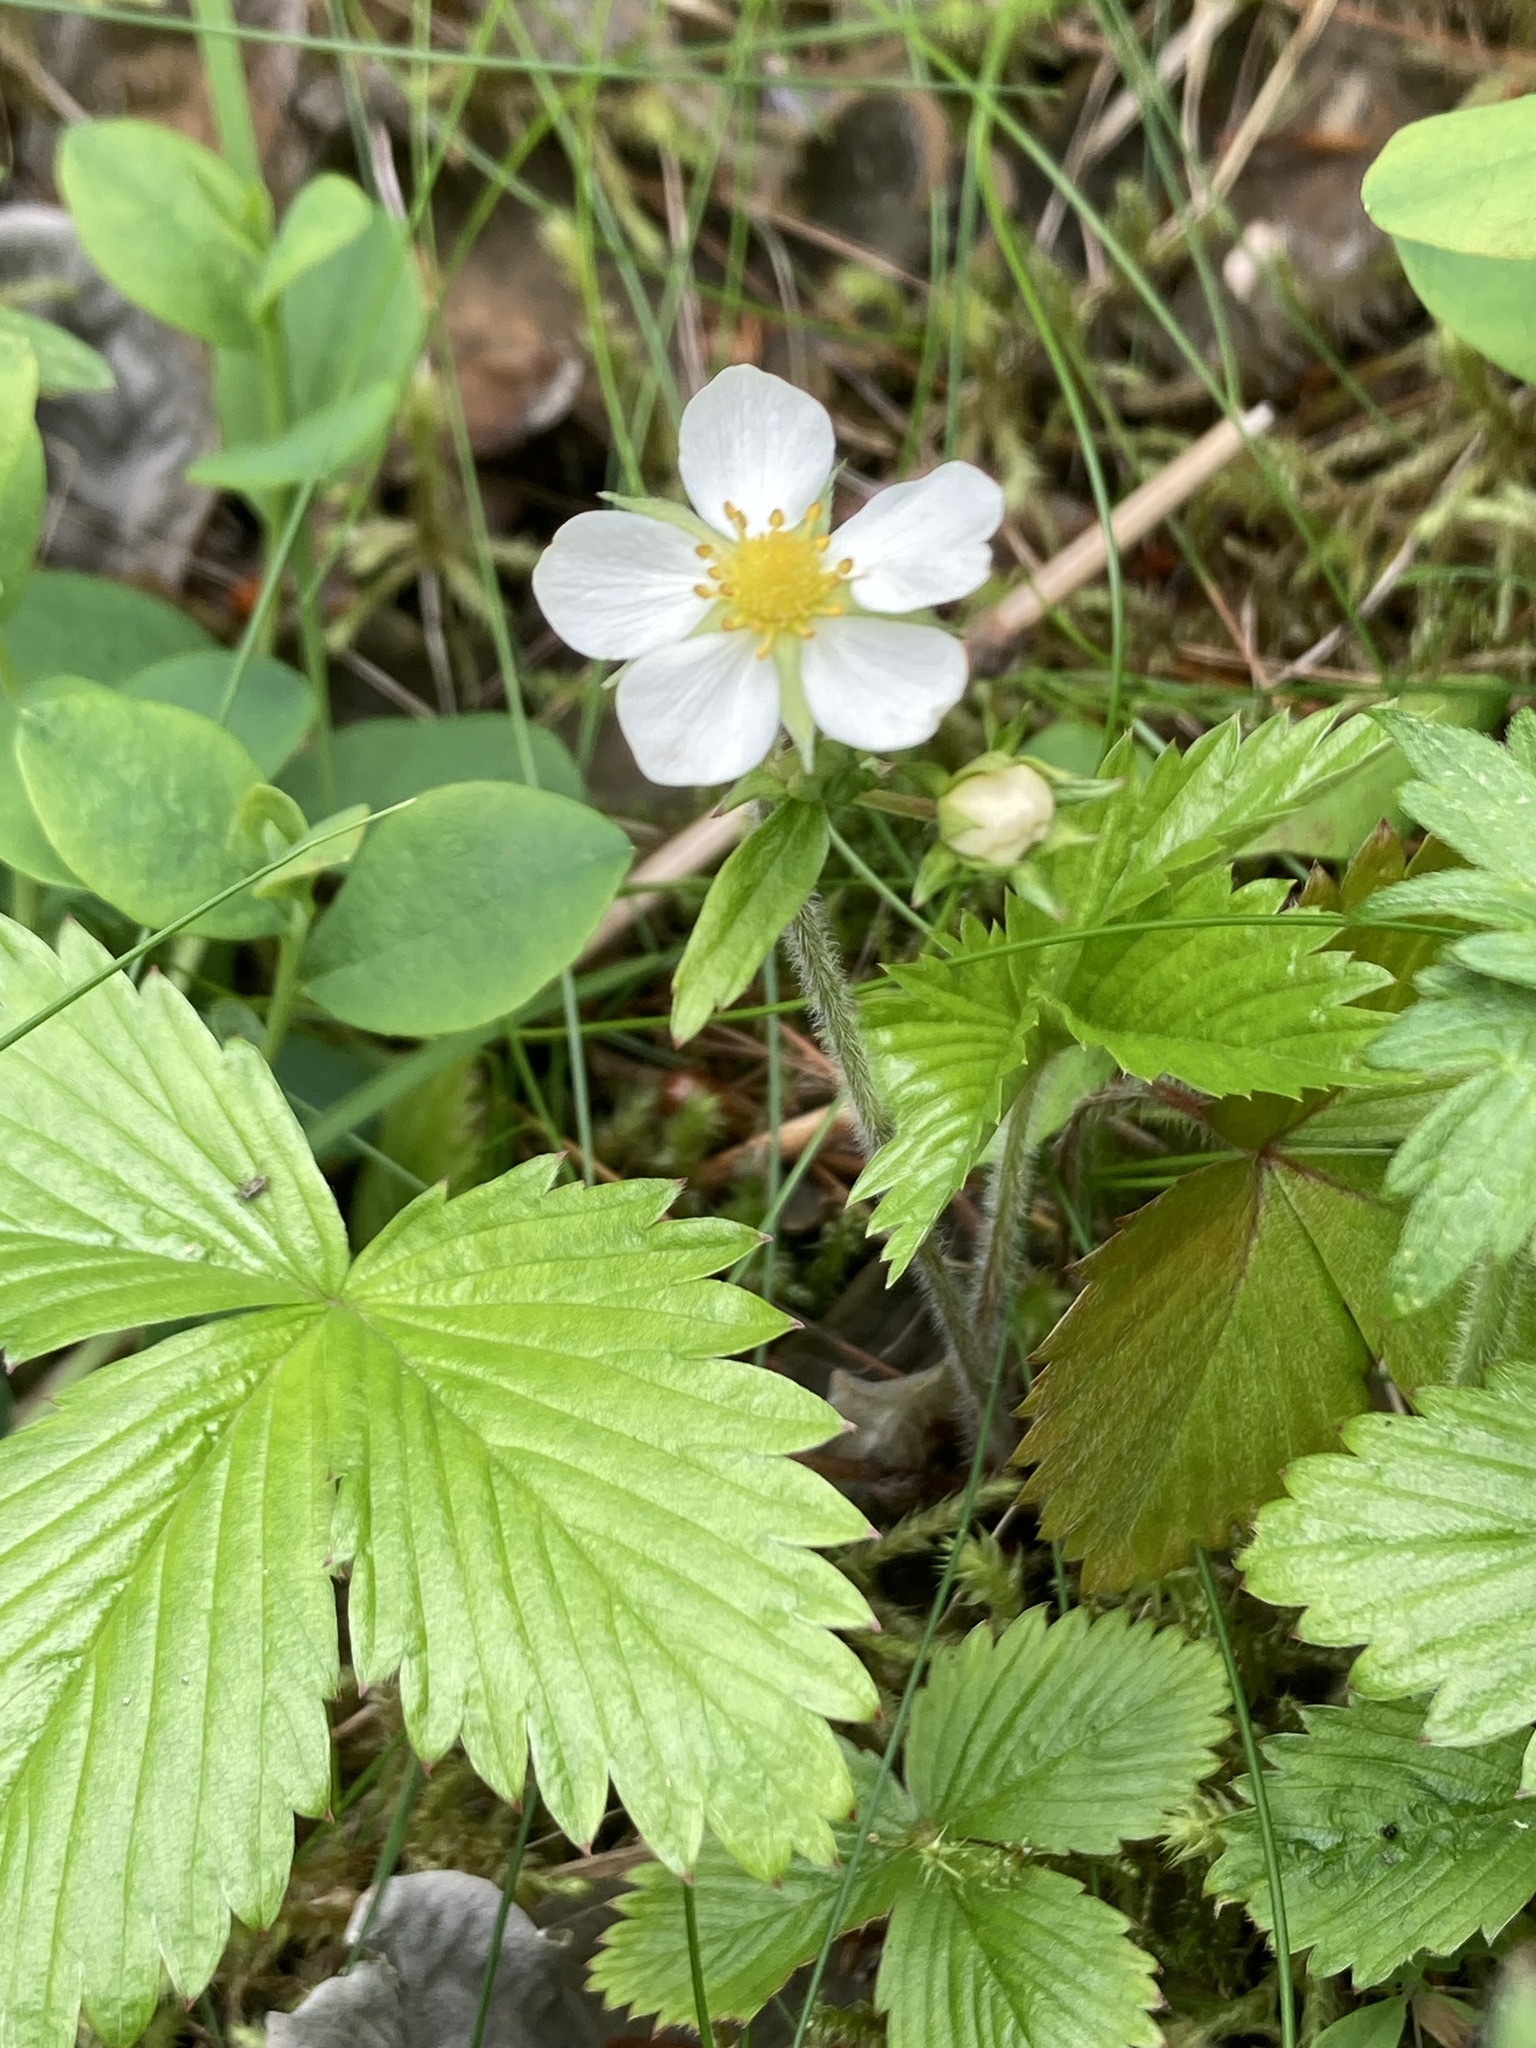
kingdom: Plantae
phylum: Tracheophyta
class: Magnoliopsida
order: Rosales
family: Rosaceae
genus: Fragaria
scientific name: Fragaria vesca
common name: Wild strawberry
